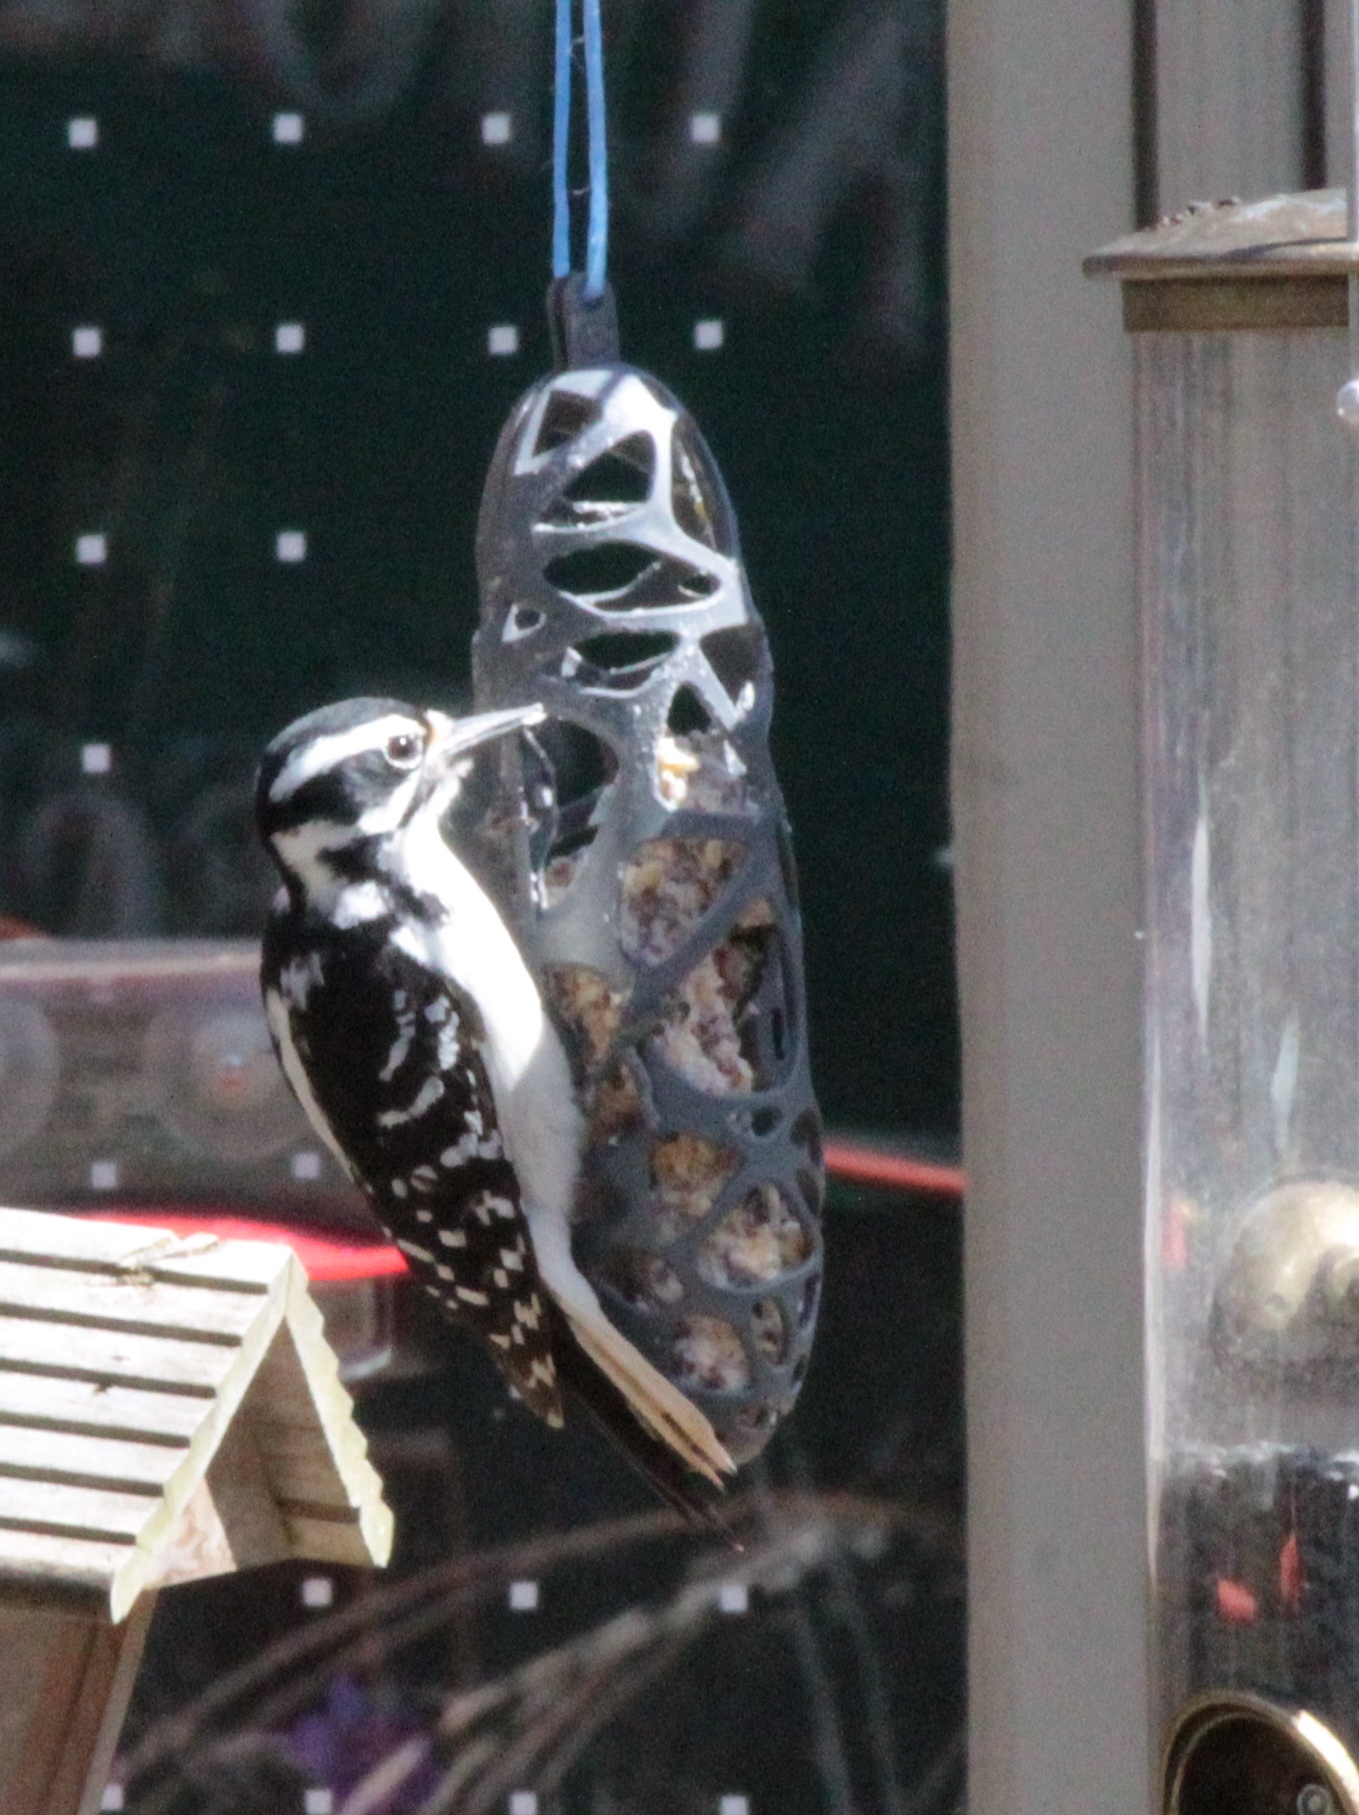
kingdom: Animalia
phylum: Chordata
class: Aves
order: Piciformes
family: Picidae
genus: Leuconotopicus
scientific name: Leuconotopicus villosus
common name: Hairy woodpecker
